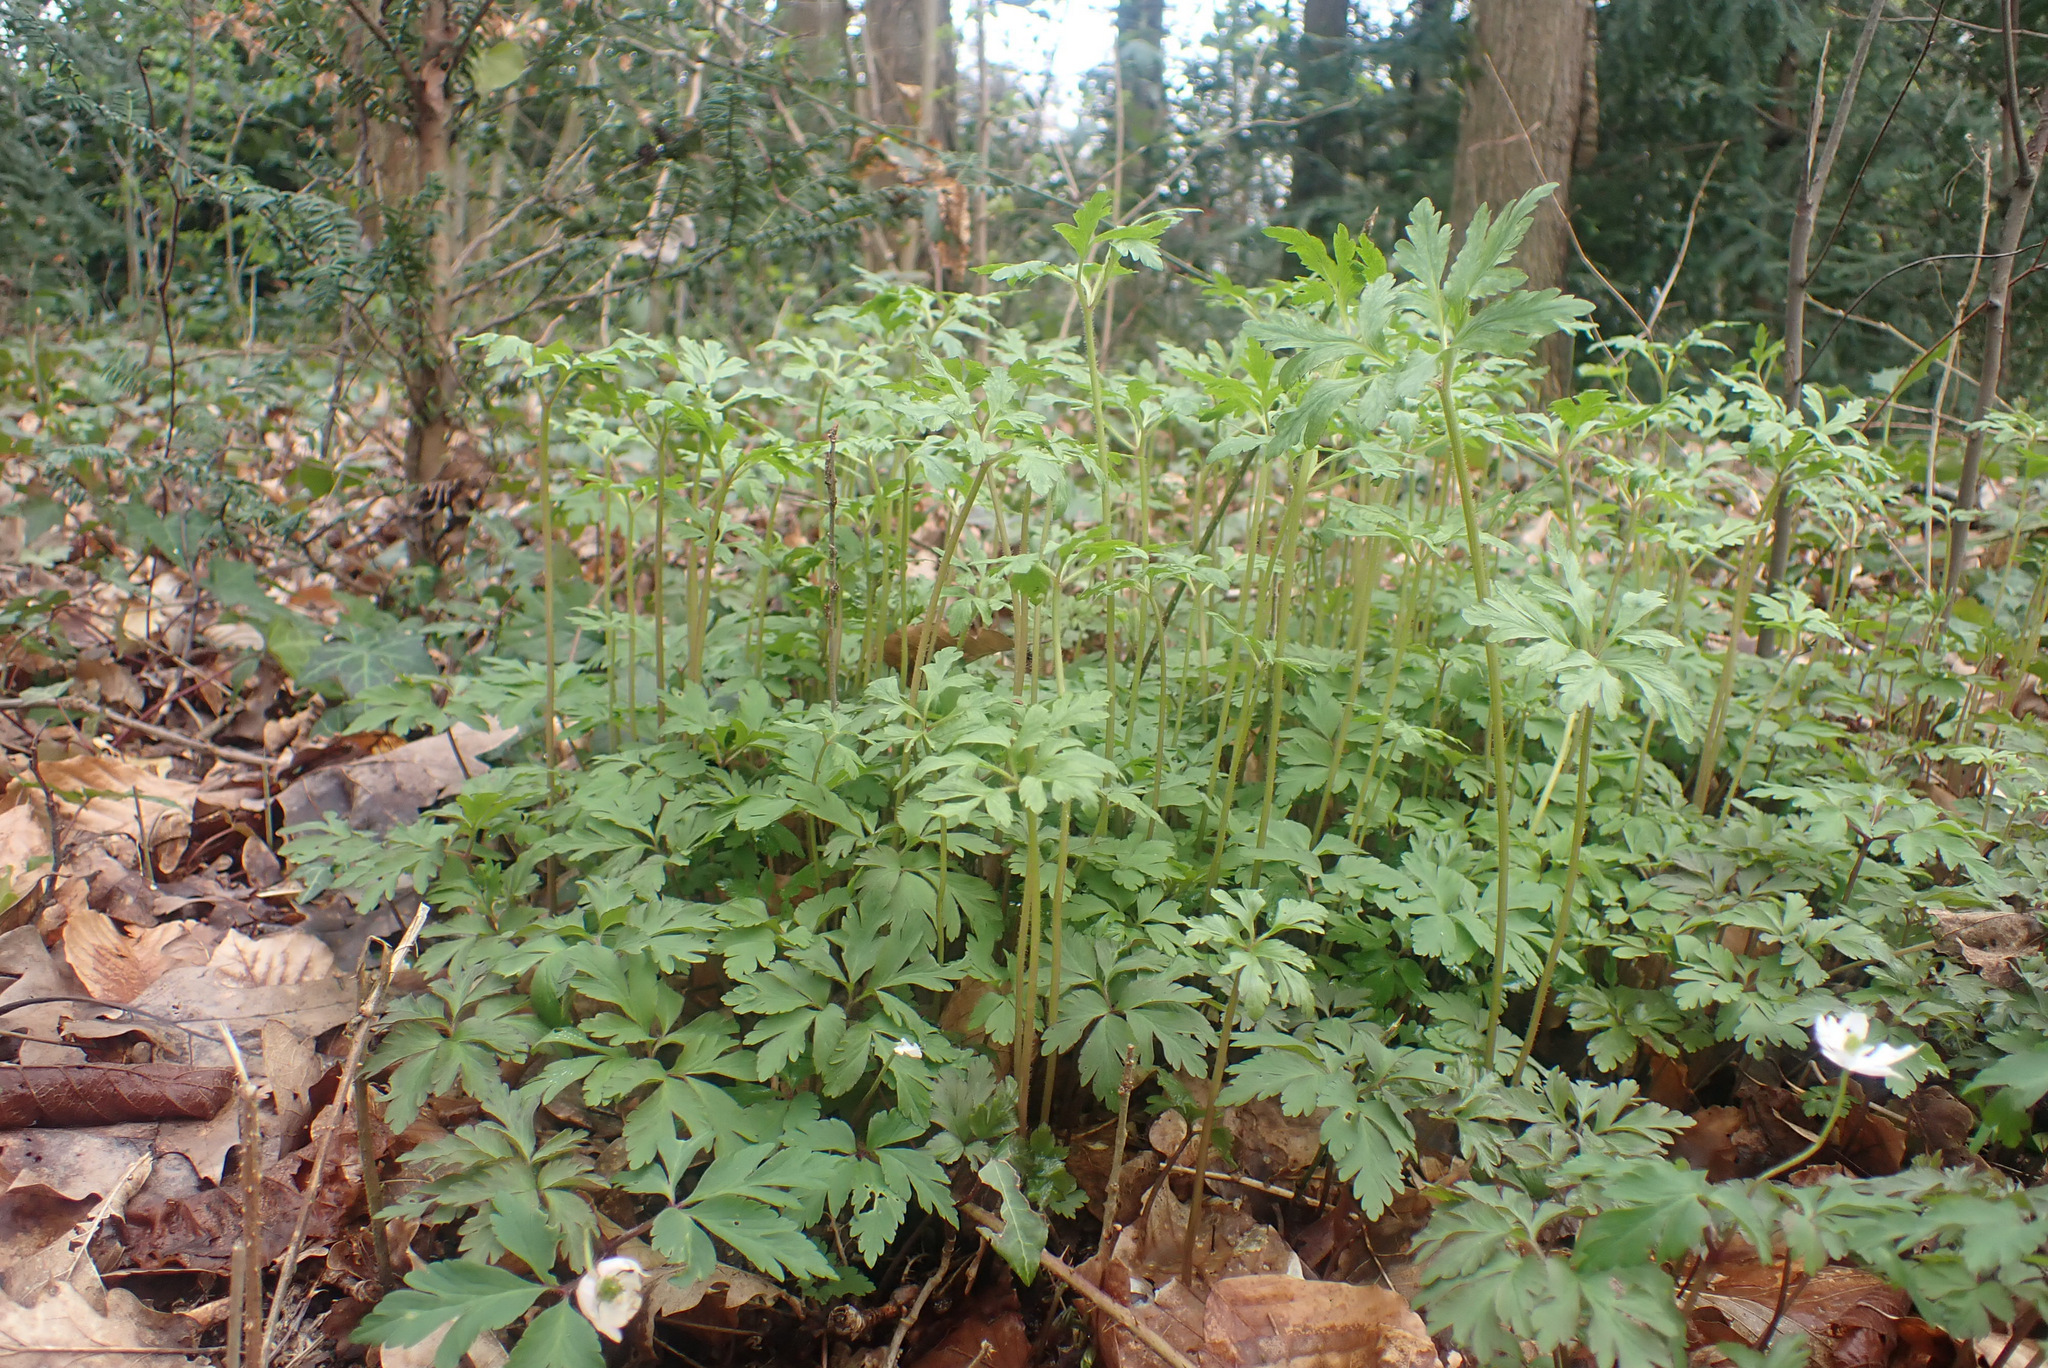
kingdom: Fungi
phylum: Basidiomycota
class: Pucciniomycetes
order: Pucciniales
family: Ochropsoraceae
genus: Ochropsora
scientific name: Ochropsora ariae
